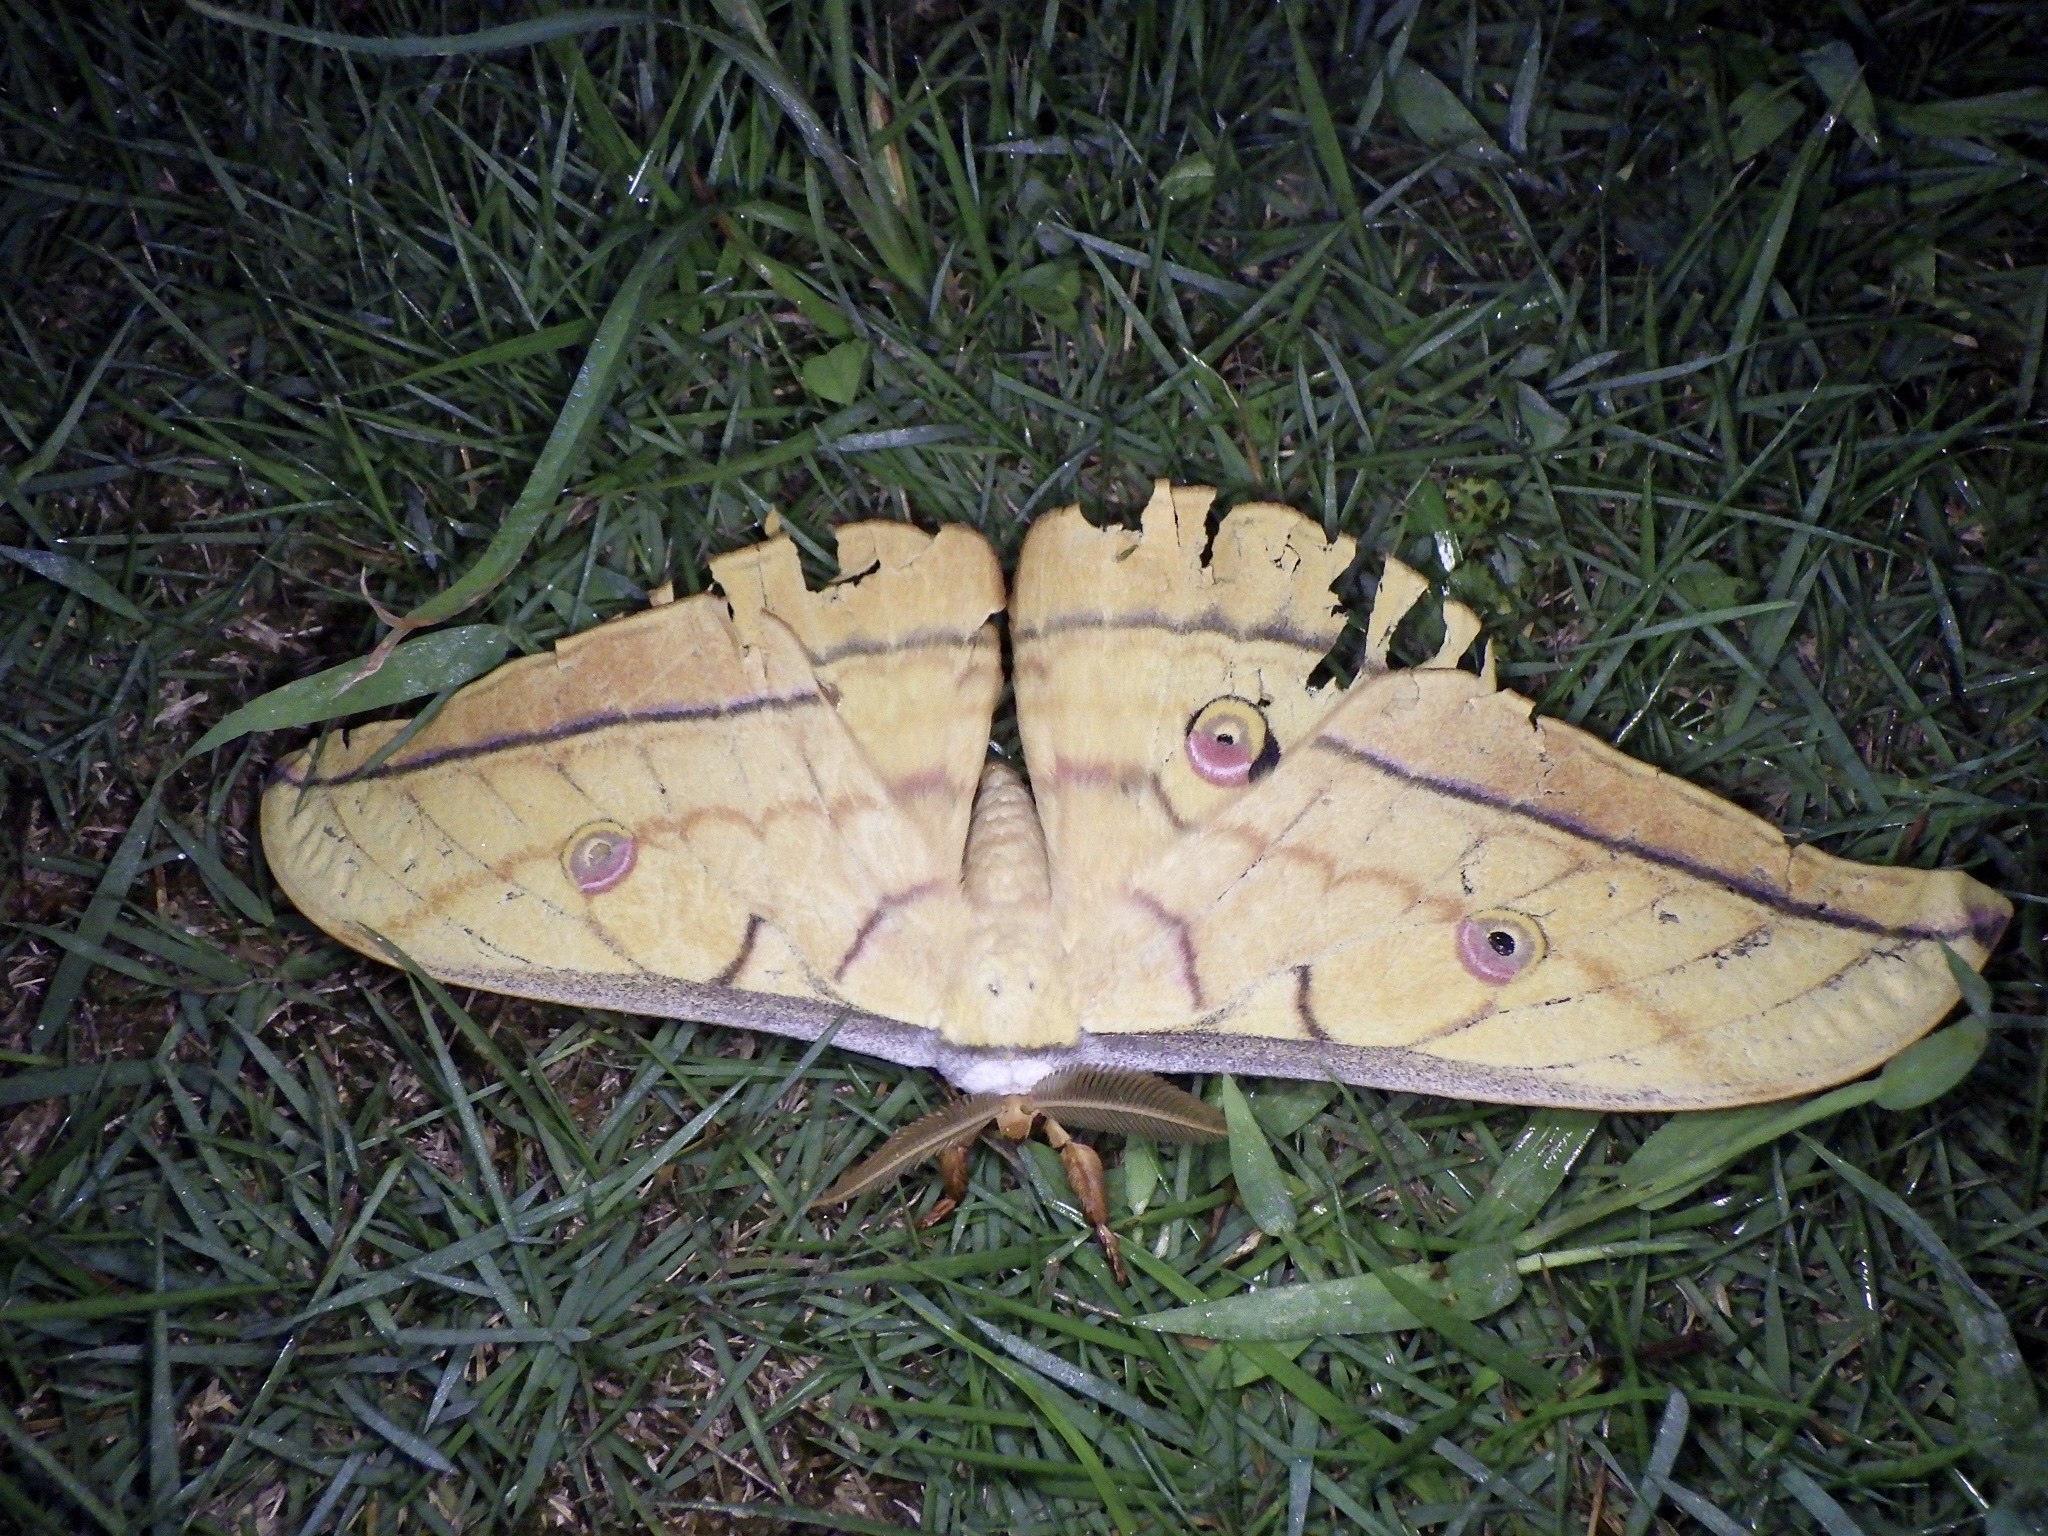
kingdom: Animalia
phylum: Arthropoda
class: Insecta
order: Lepidoptera
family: Saturniidae
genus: Antheraea
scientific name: Antheraea yamamai
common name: Japanese oak silk moth
